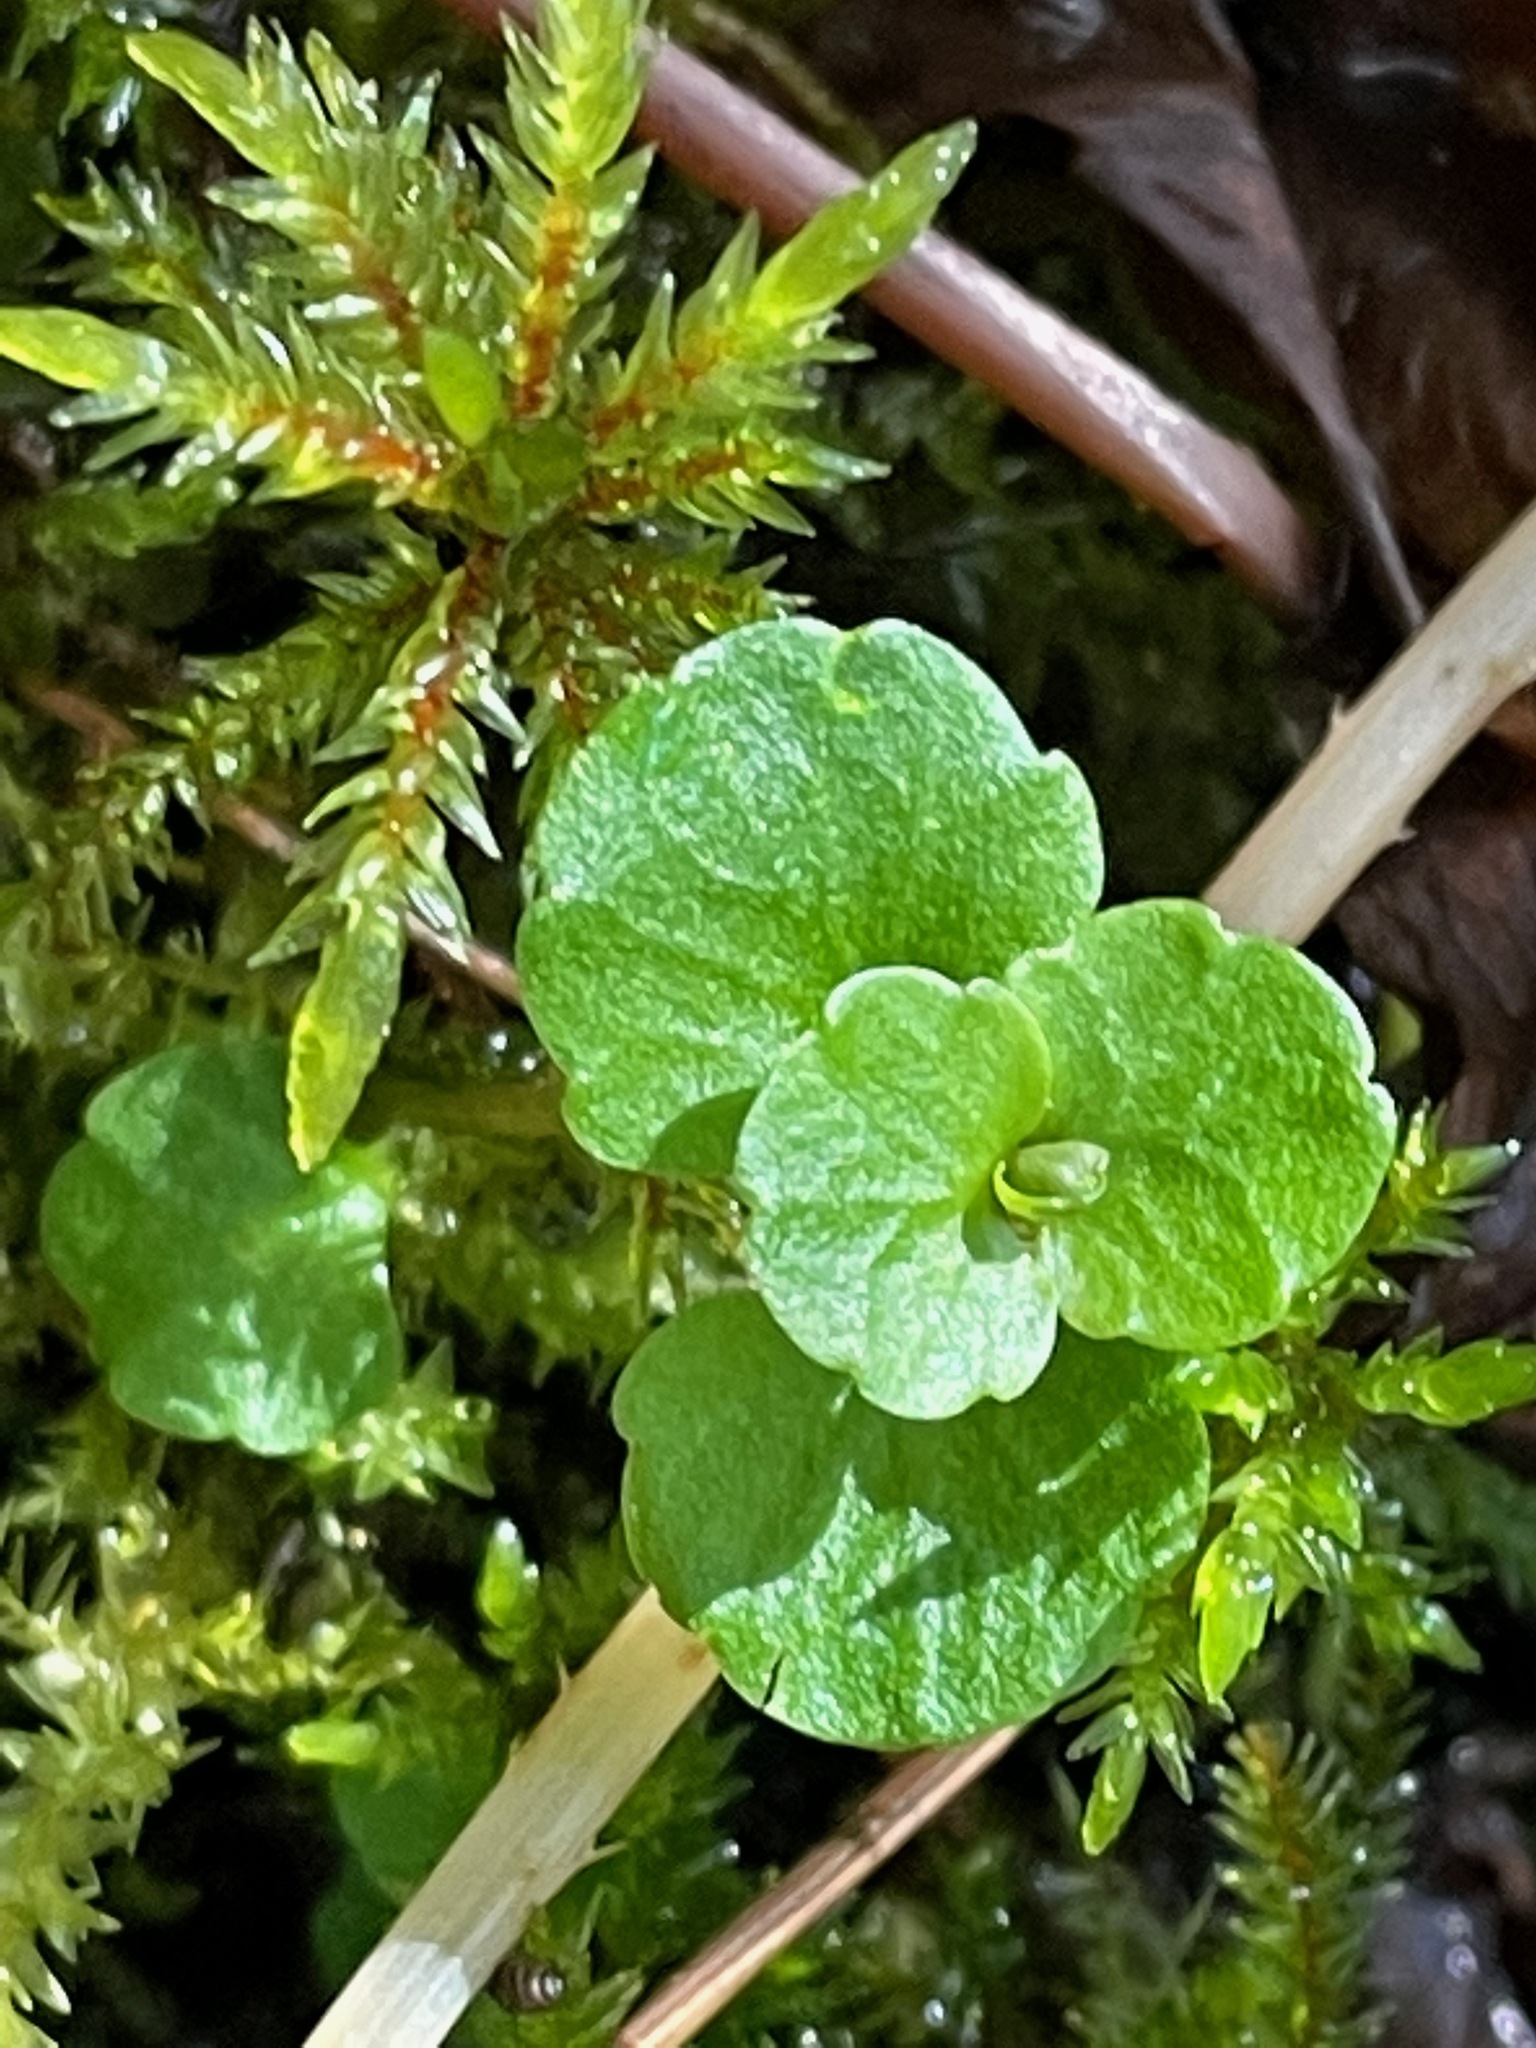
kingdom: Plantae
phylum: Tracheophyta
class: Magnoliopsida
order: Saxifragales
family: Saxifragaceae
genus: Chrysosplenium
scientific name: Chrysosplenium americanum
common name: American golden-saxifrage
